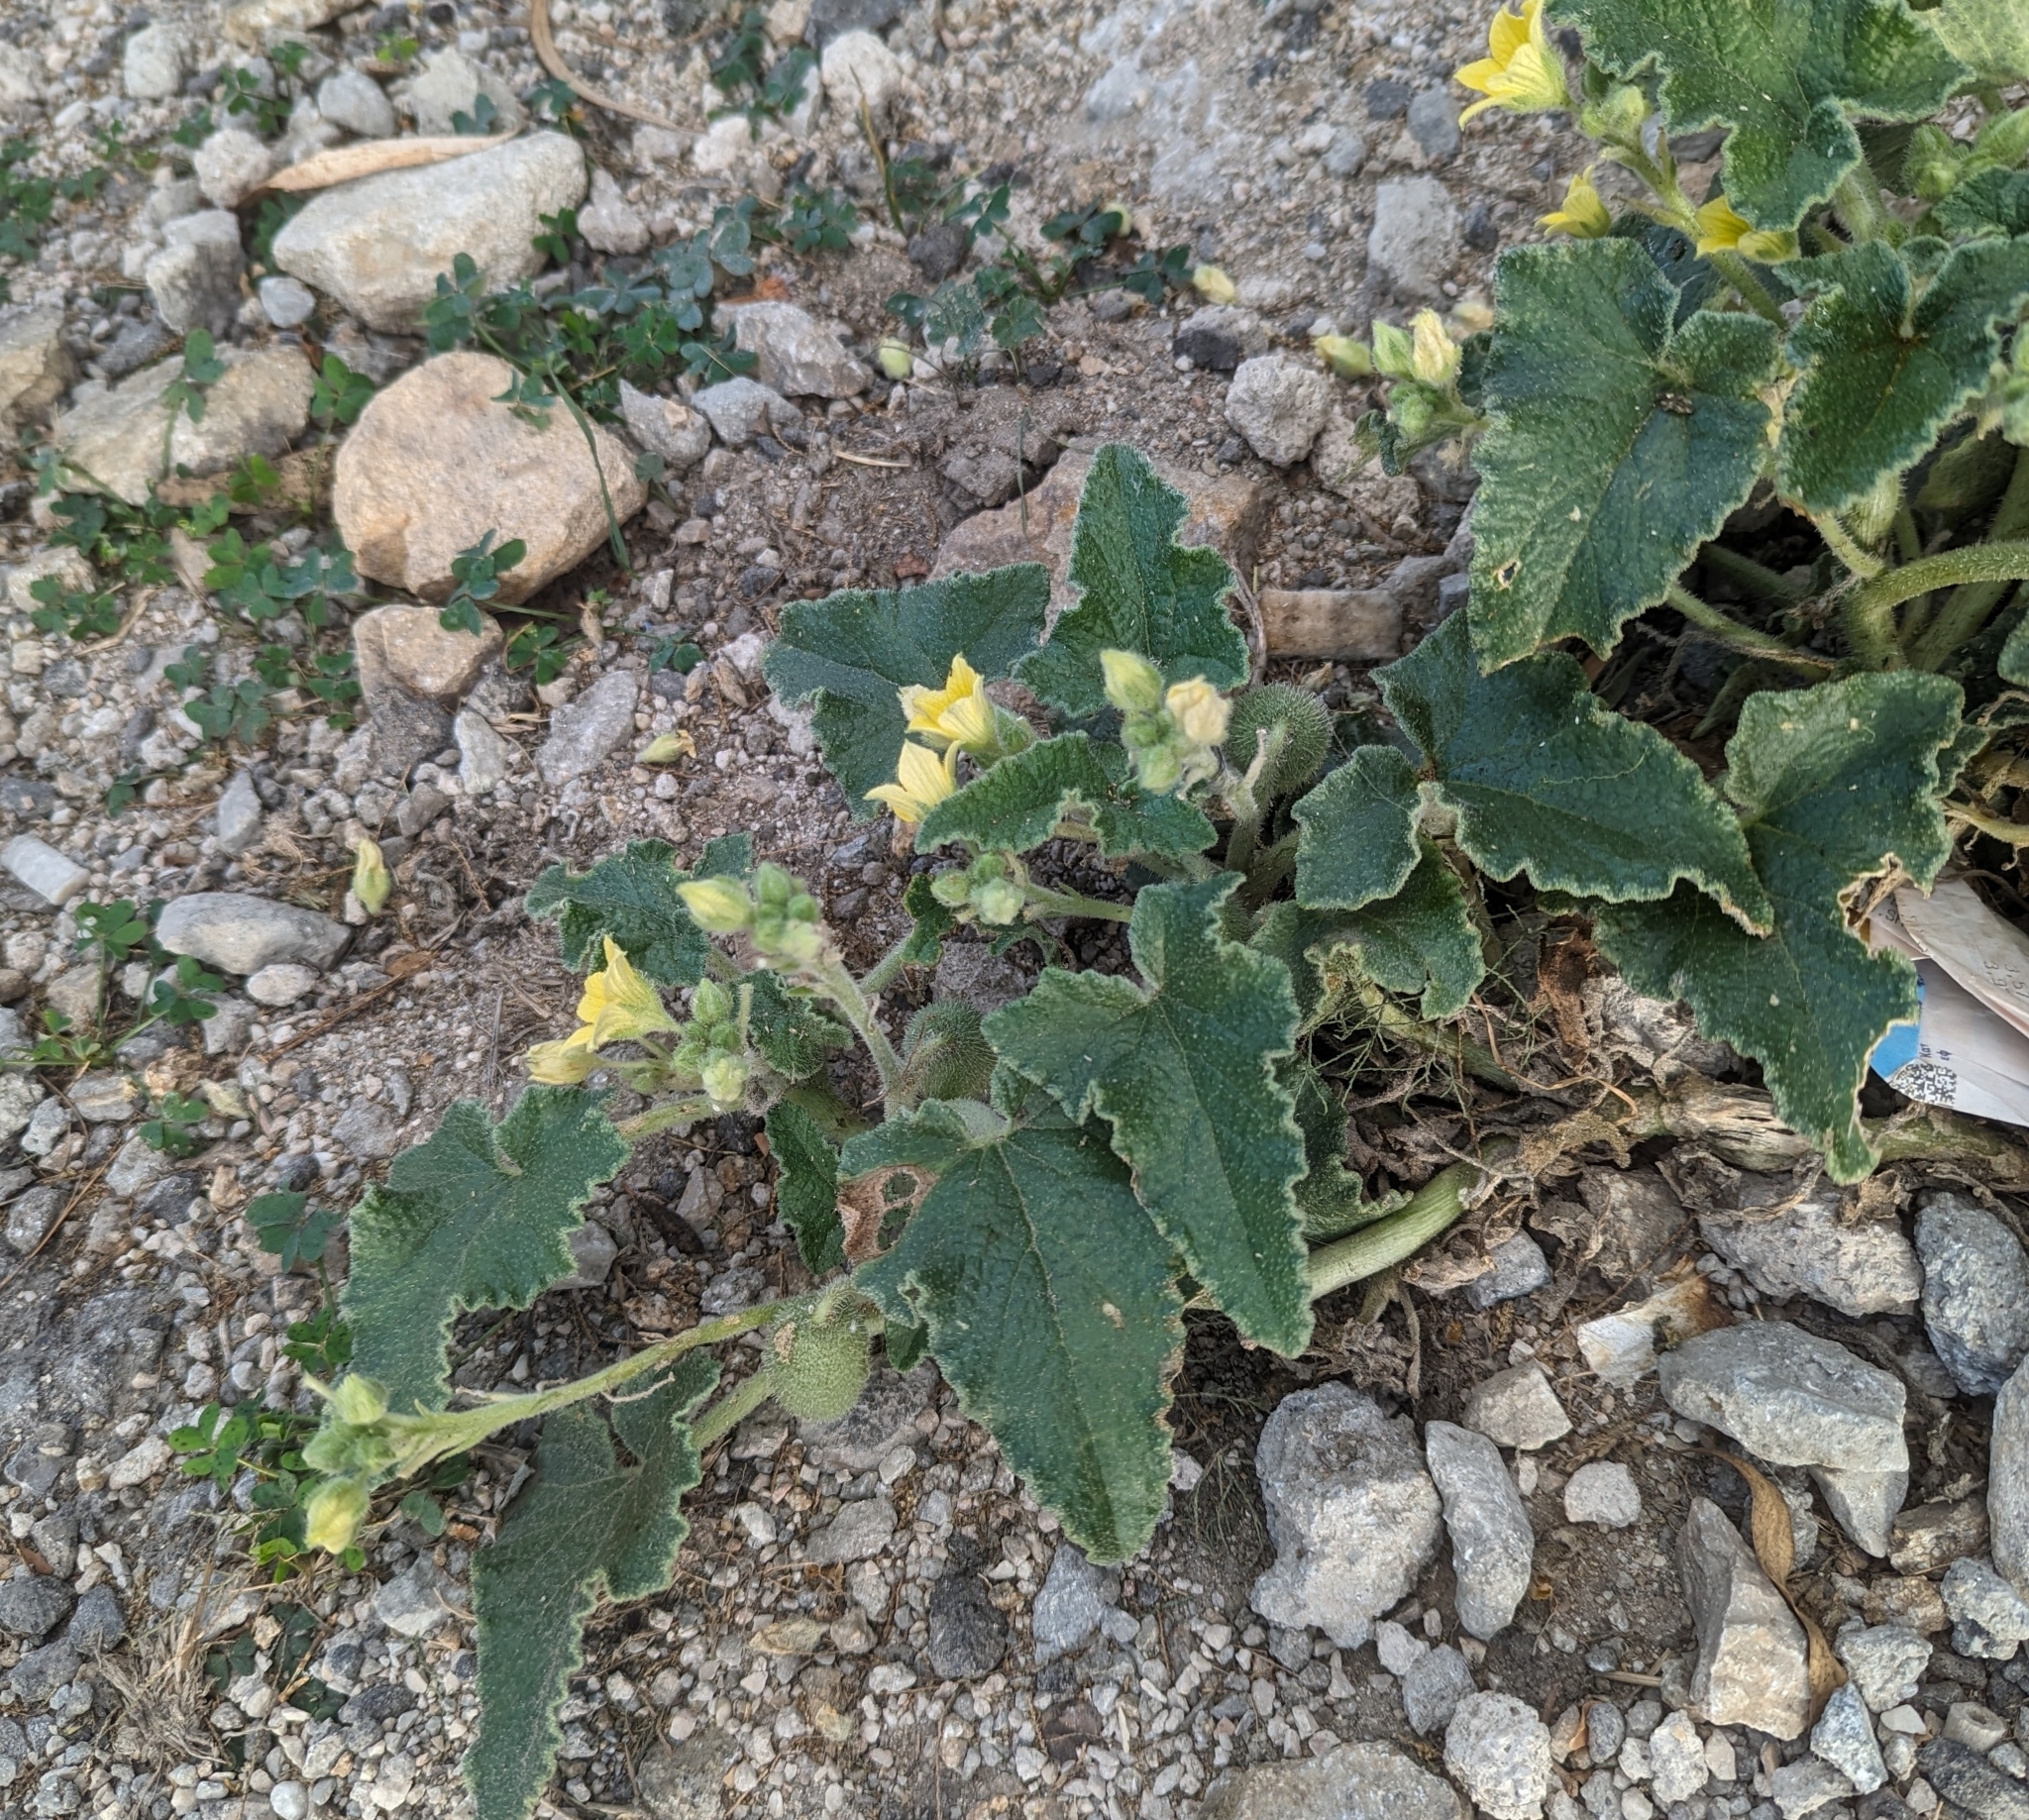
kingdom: Plantae
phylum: Tracheophyta
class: Magnoliopsida
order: Cucurbitales
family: Cucurbitaceae
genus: Ecballium
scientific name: Ecballium elaterium
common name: Squirting cucumber
